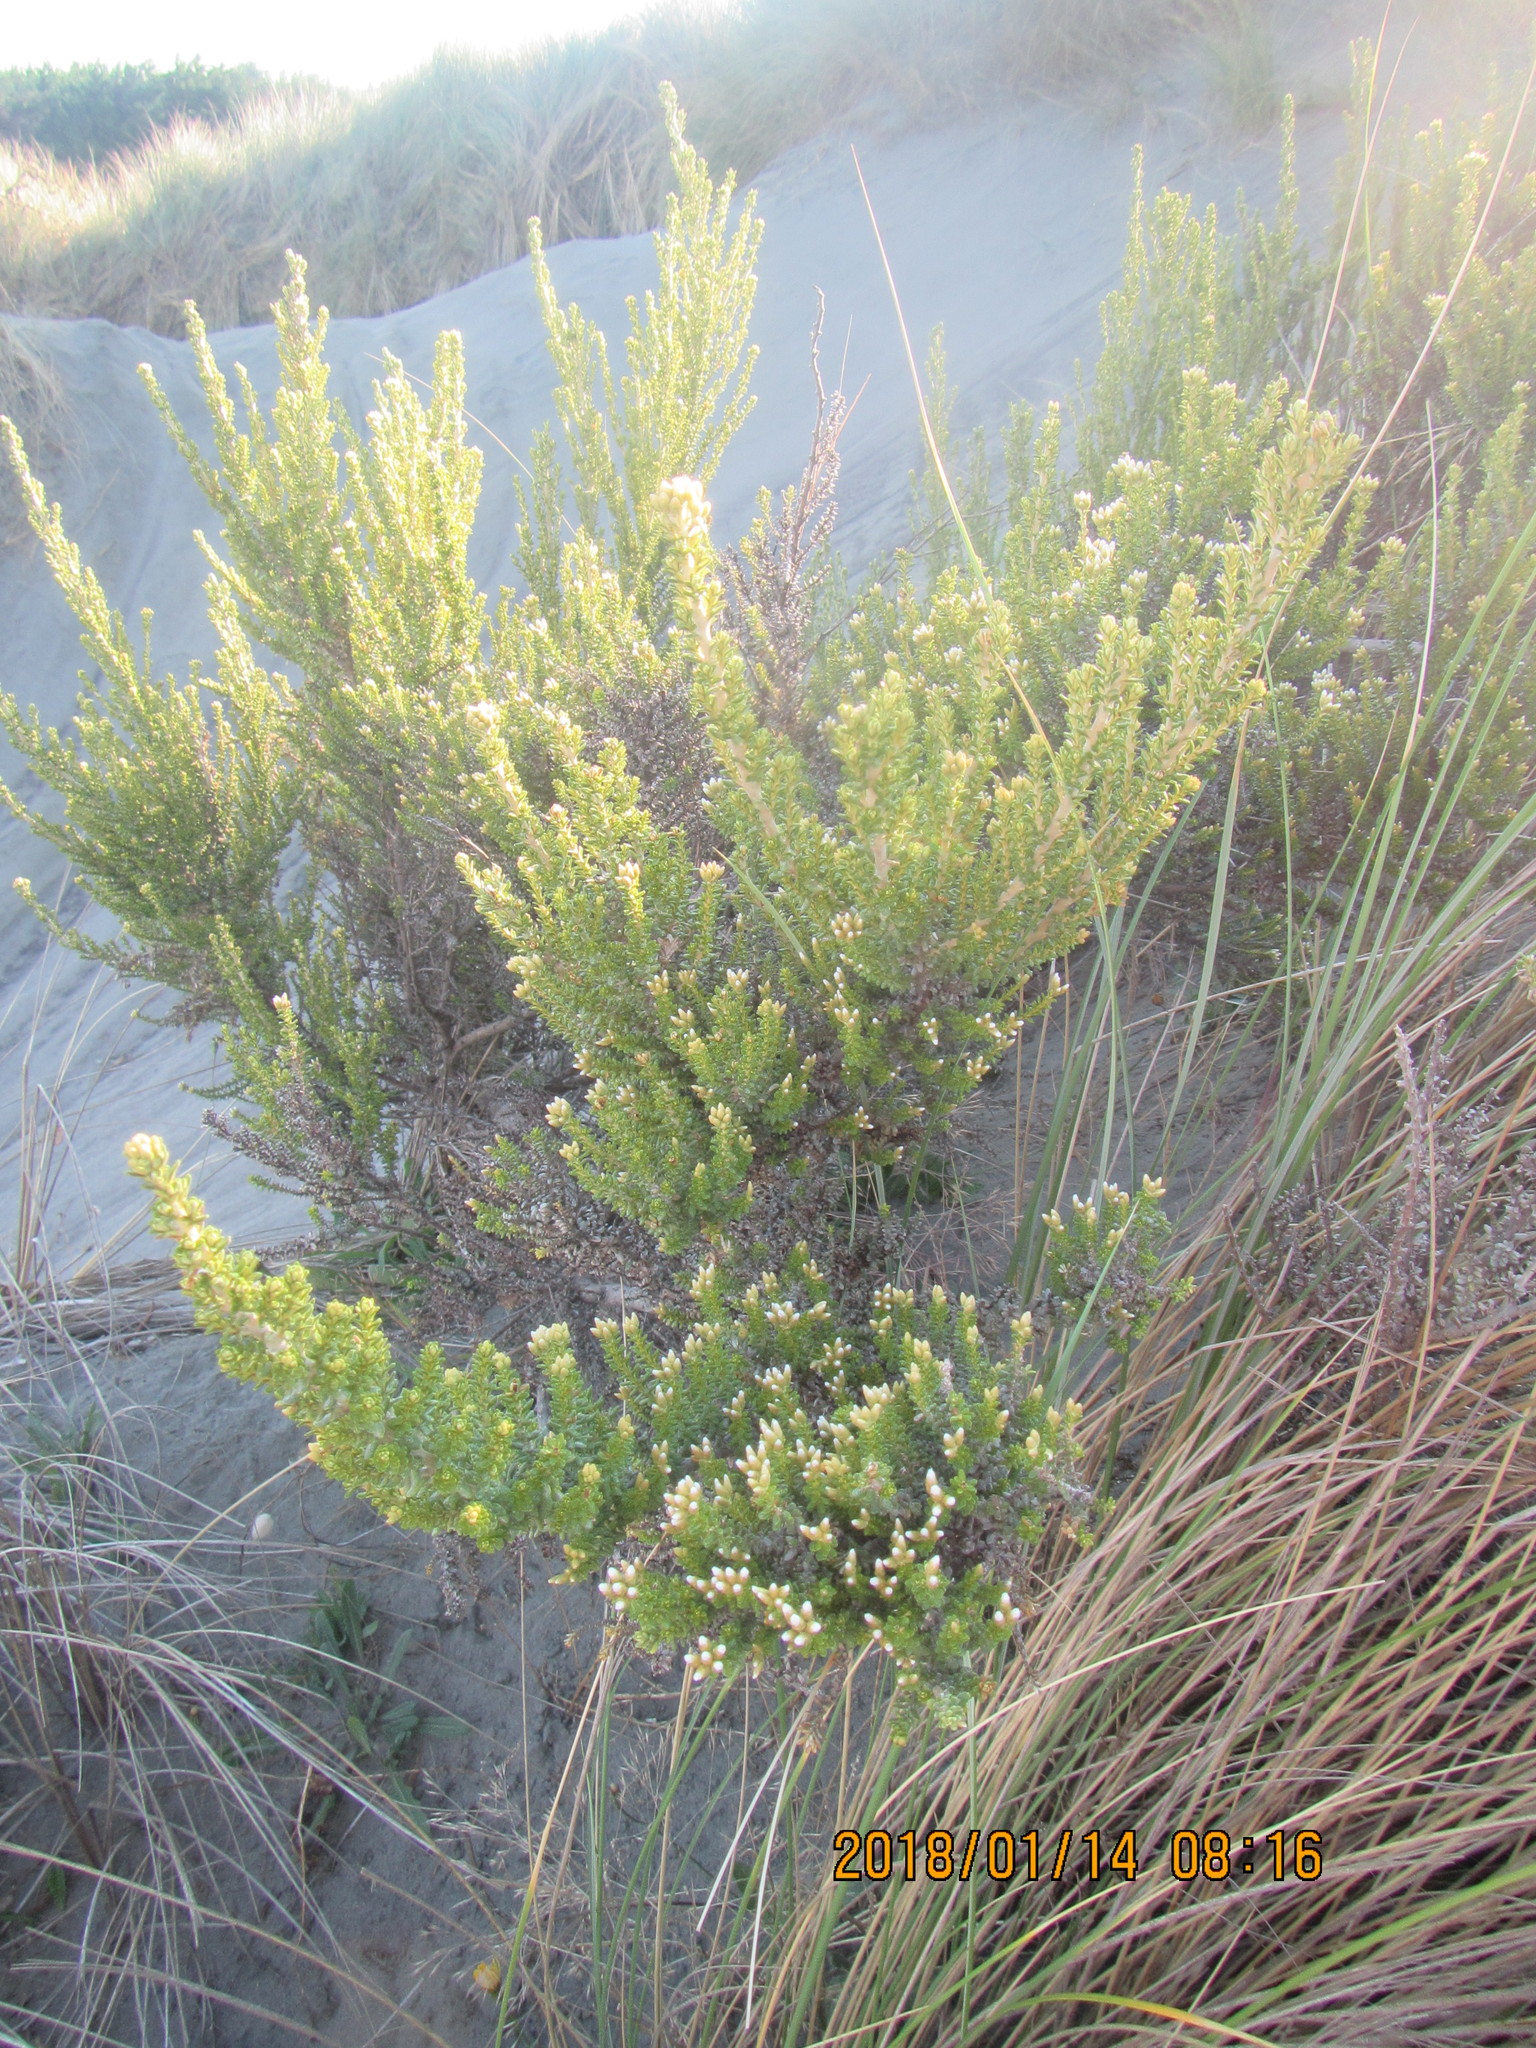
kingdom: Plantae
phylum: Tracheophyta
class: Magnoliopsida
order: Asterales
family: Asteraceae
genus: Ozothamnus
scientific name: Ozothamnus leptophyllus
